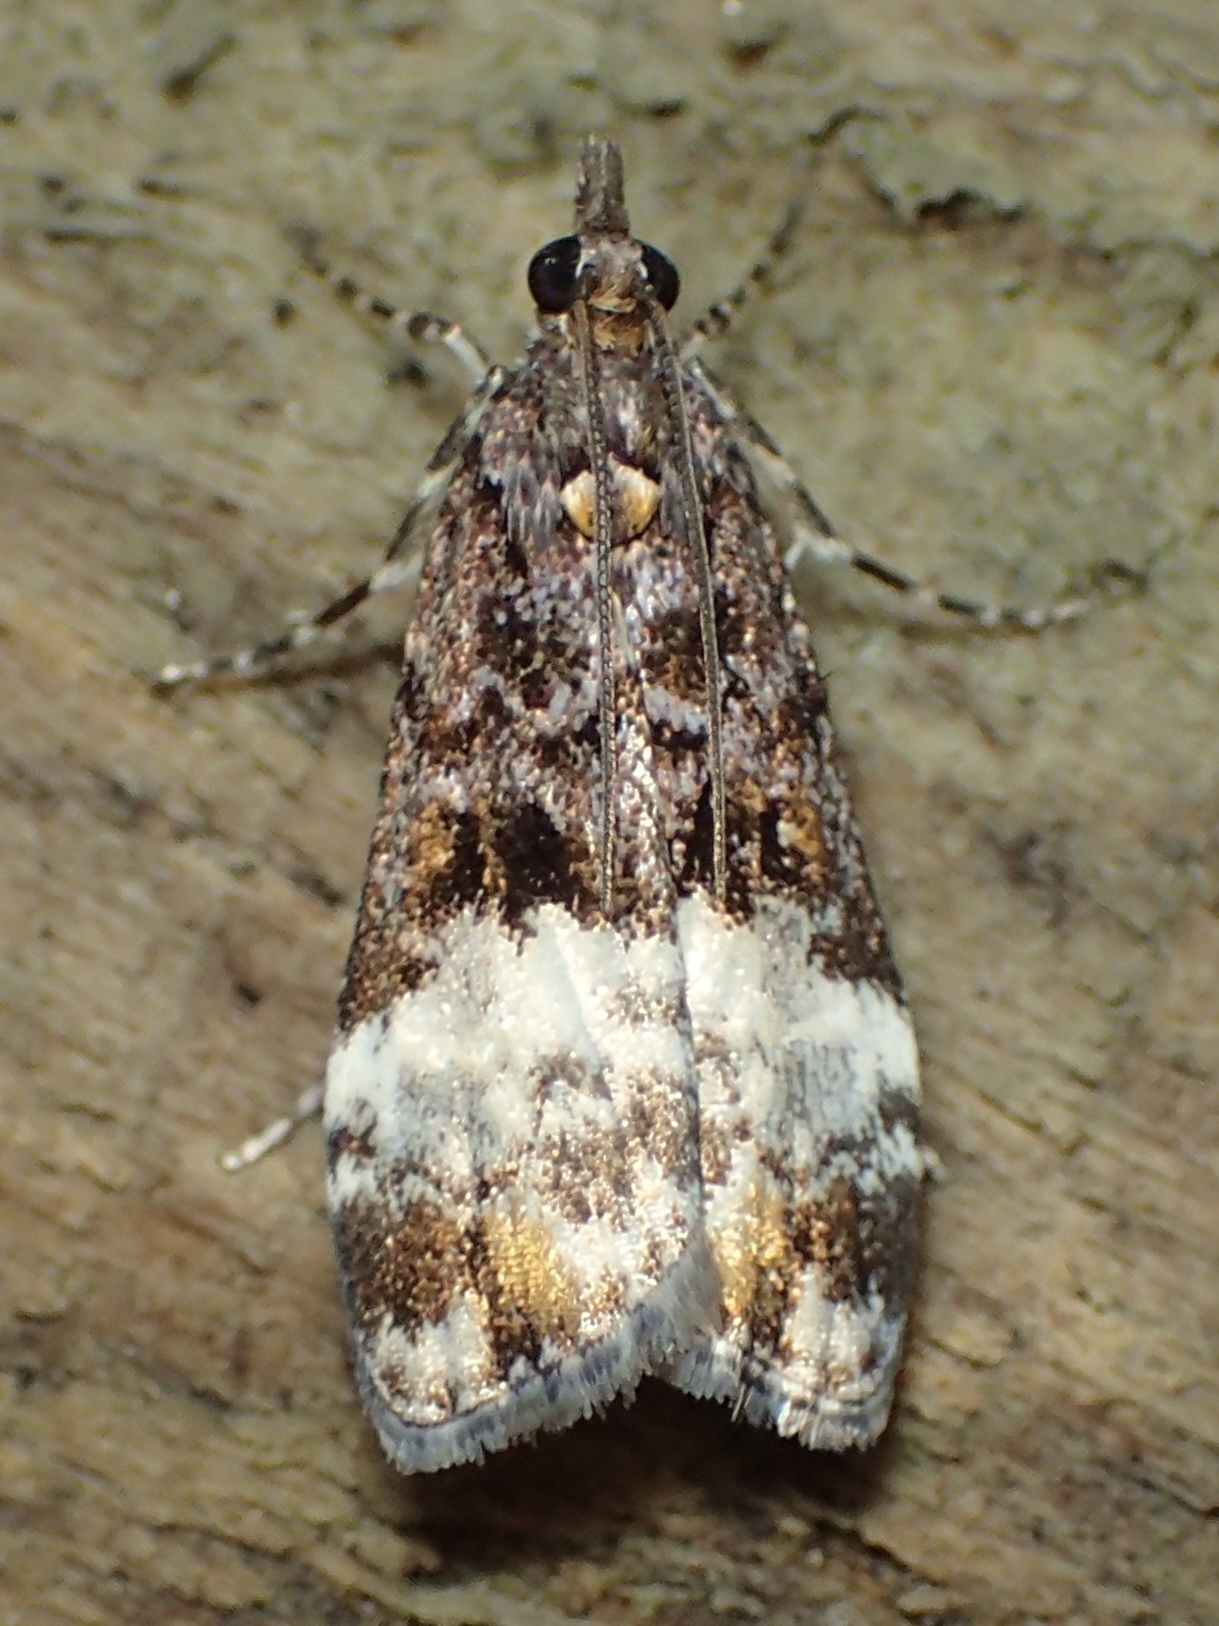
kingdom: Animalia
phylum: Arthropoda
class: Insecta
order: Lepidoptera
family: Crambidae
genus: Scoparia
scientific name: Scoparia minusculalis
